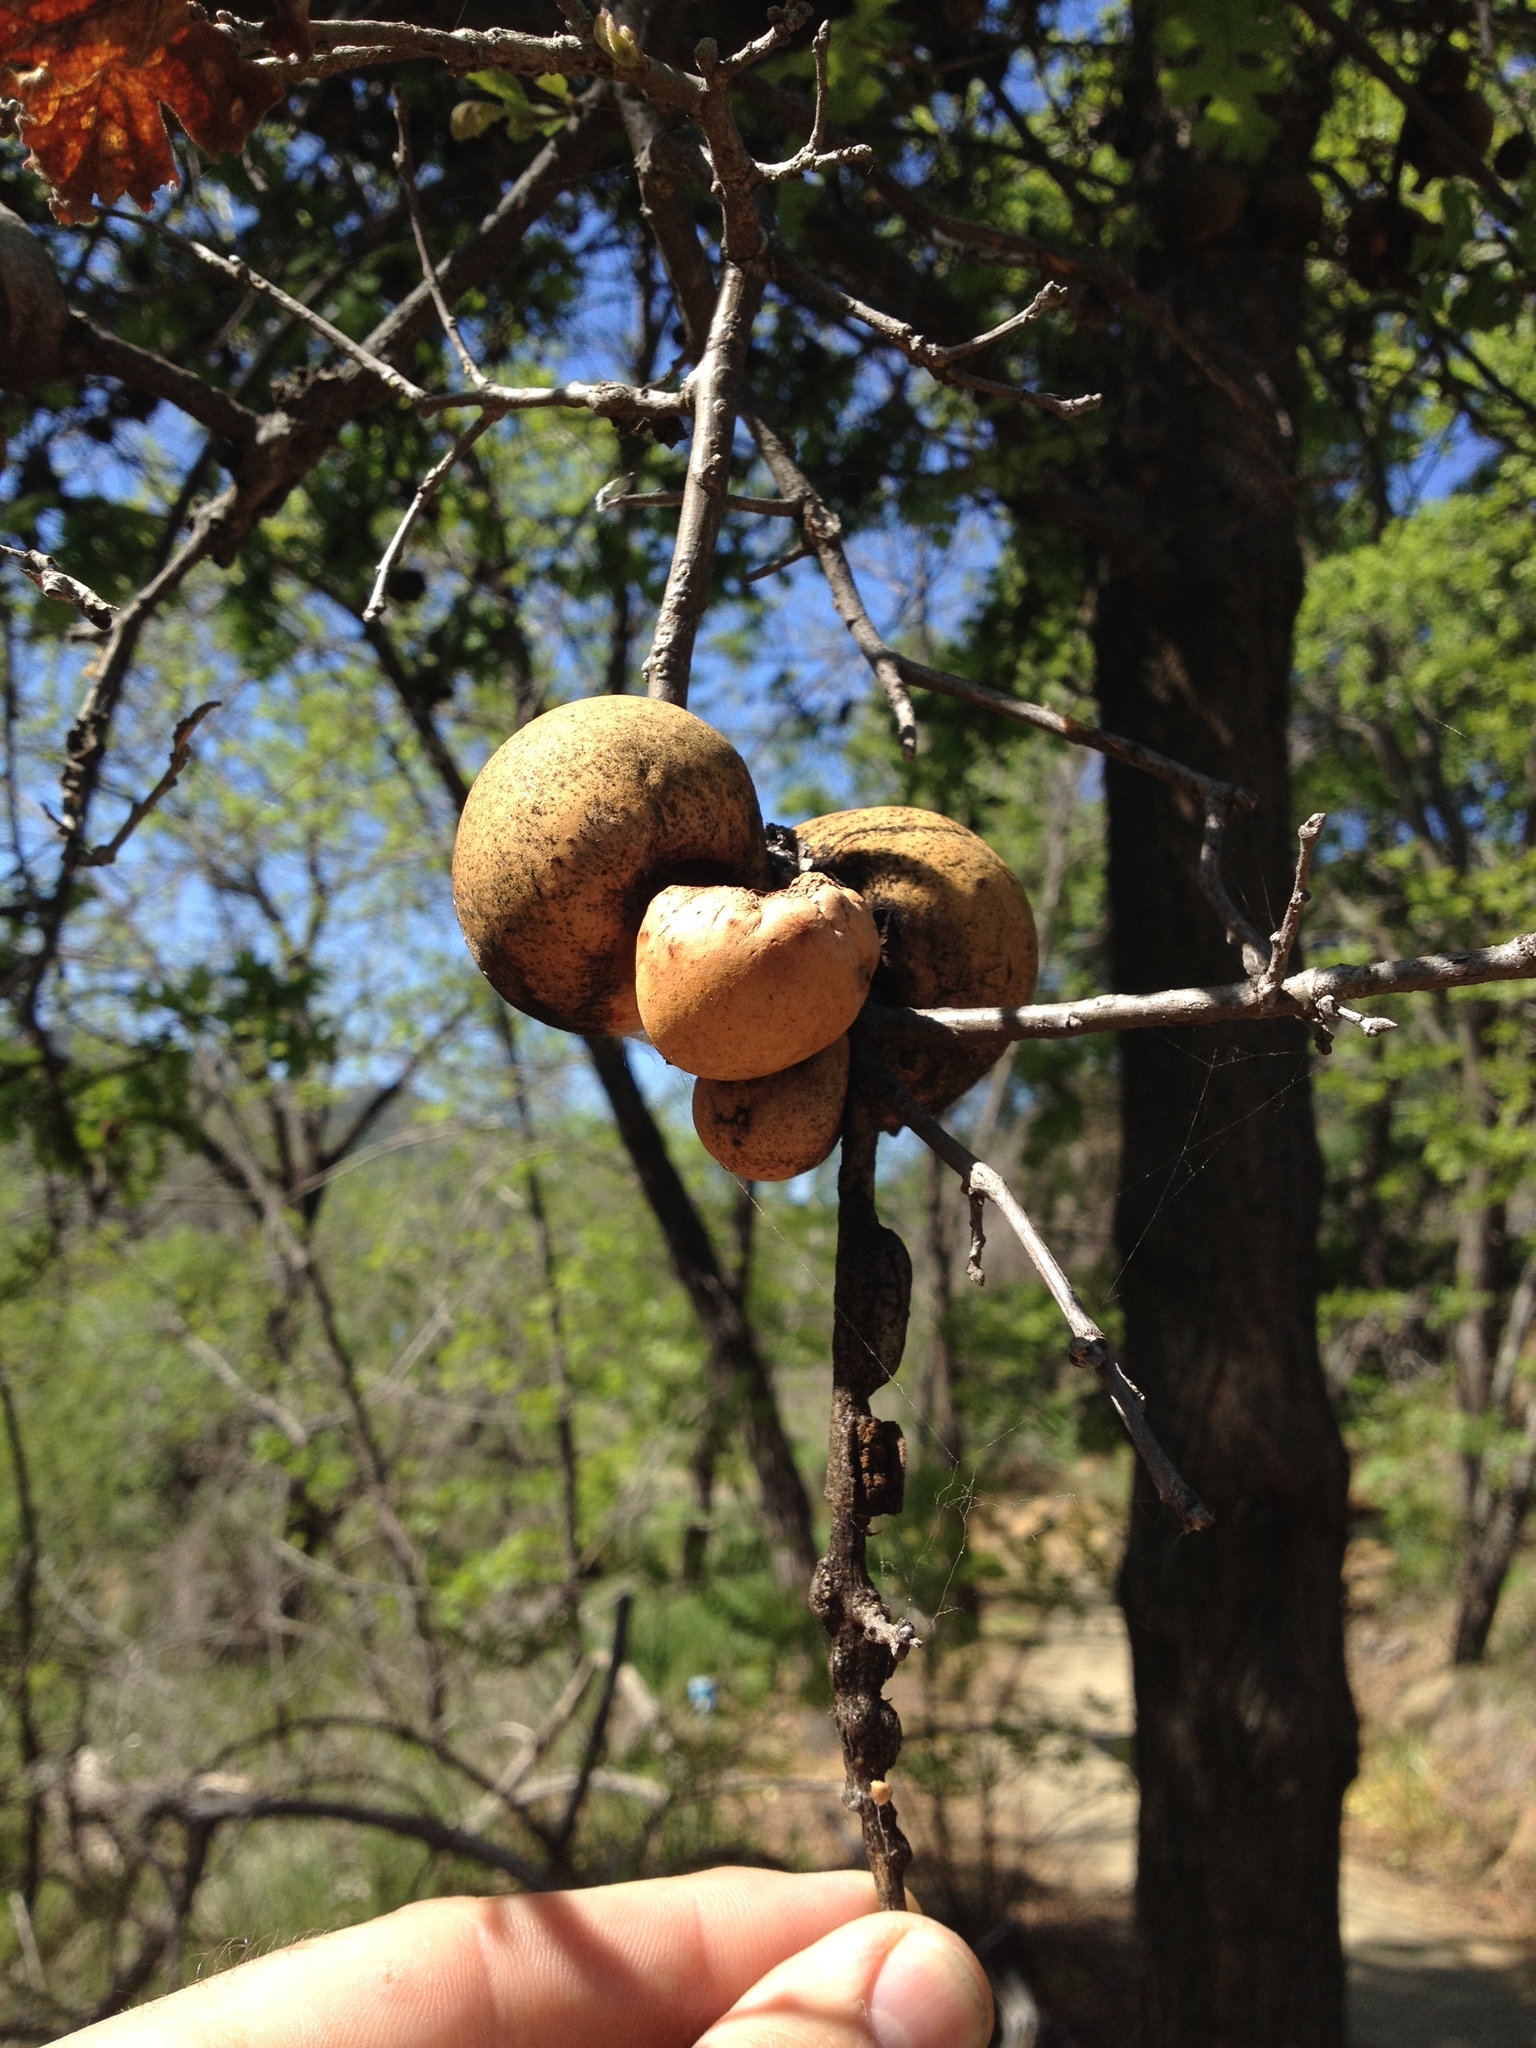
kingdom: Animalia
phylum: Arthropoda
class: Insecta
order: Hymenoptera
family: Cynipidae
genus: Andricus
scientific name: Andricus quercuscalifornicus
